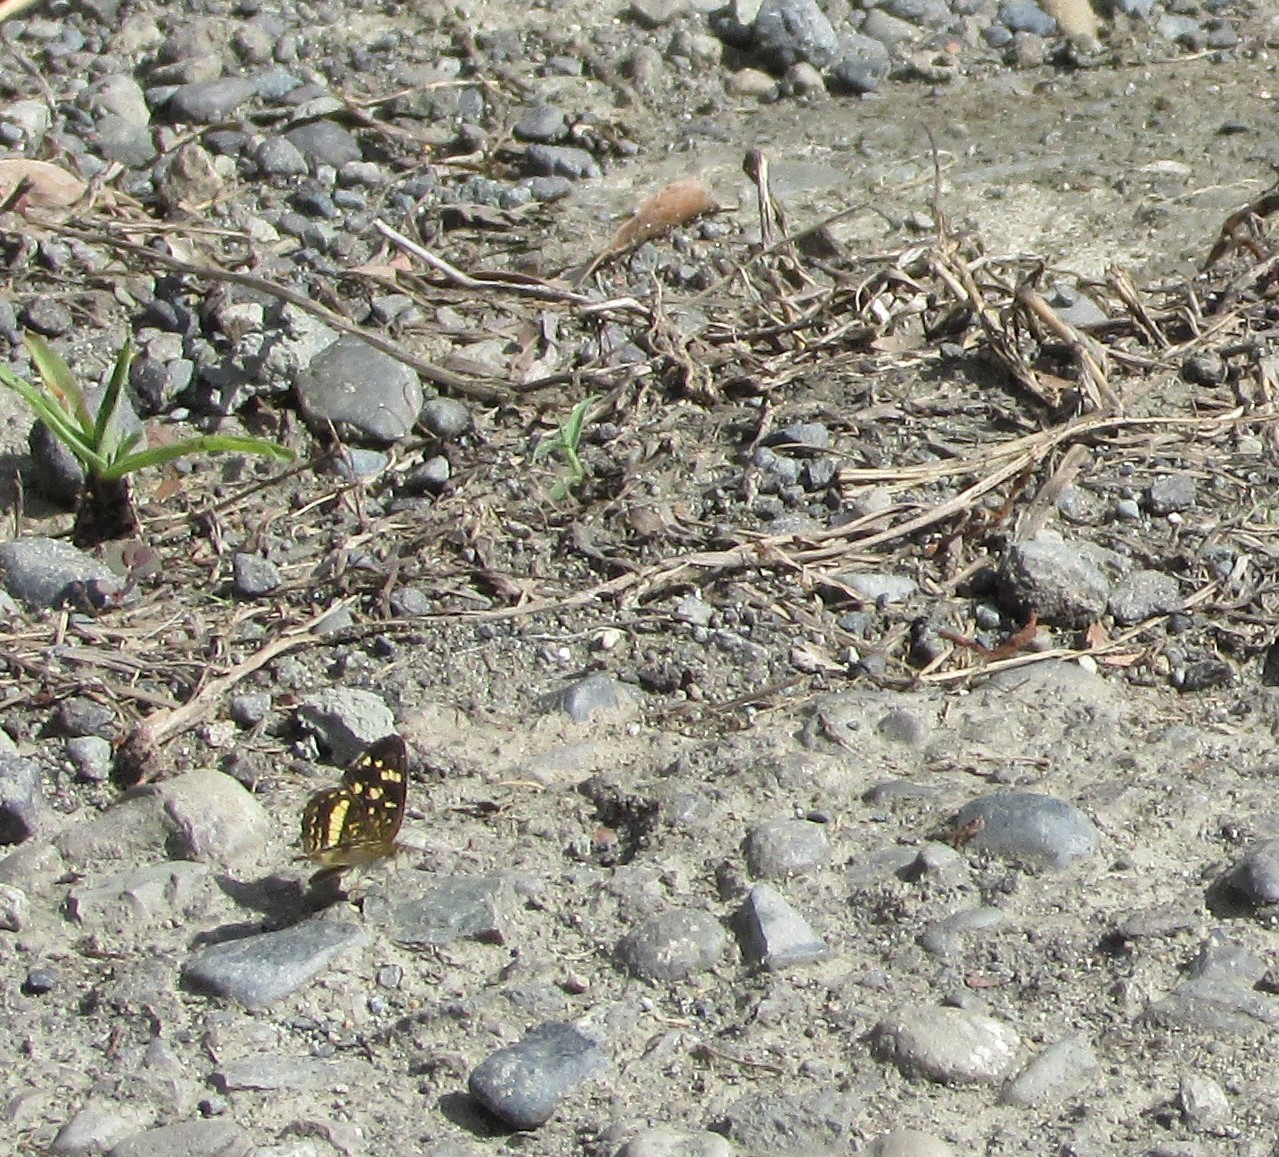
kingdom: Animalia
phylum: Arthropoda
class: Insecta
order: Lepidoptera
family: Nymphalidae
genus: Anthanassa
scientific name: Anthanassa tulcis
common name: Pale-banded crescent
